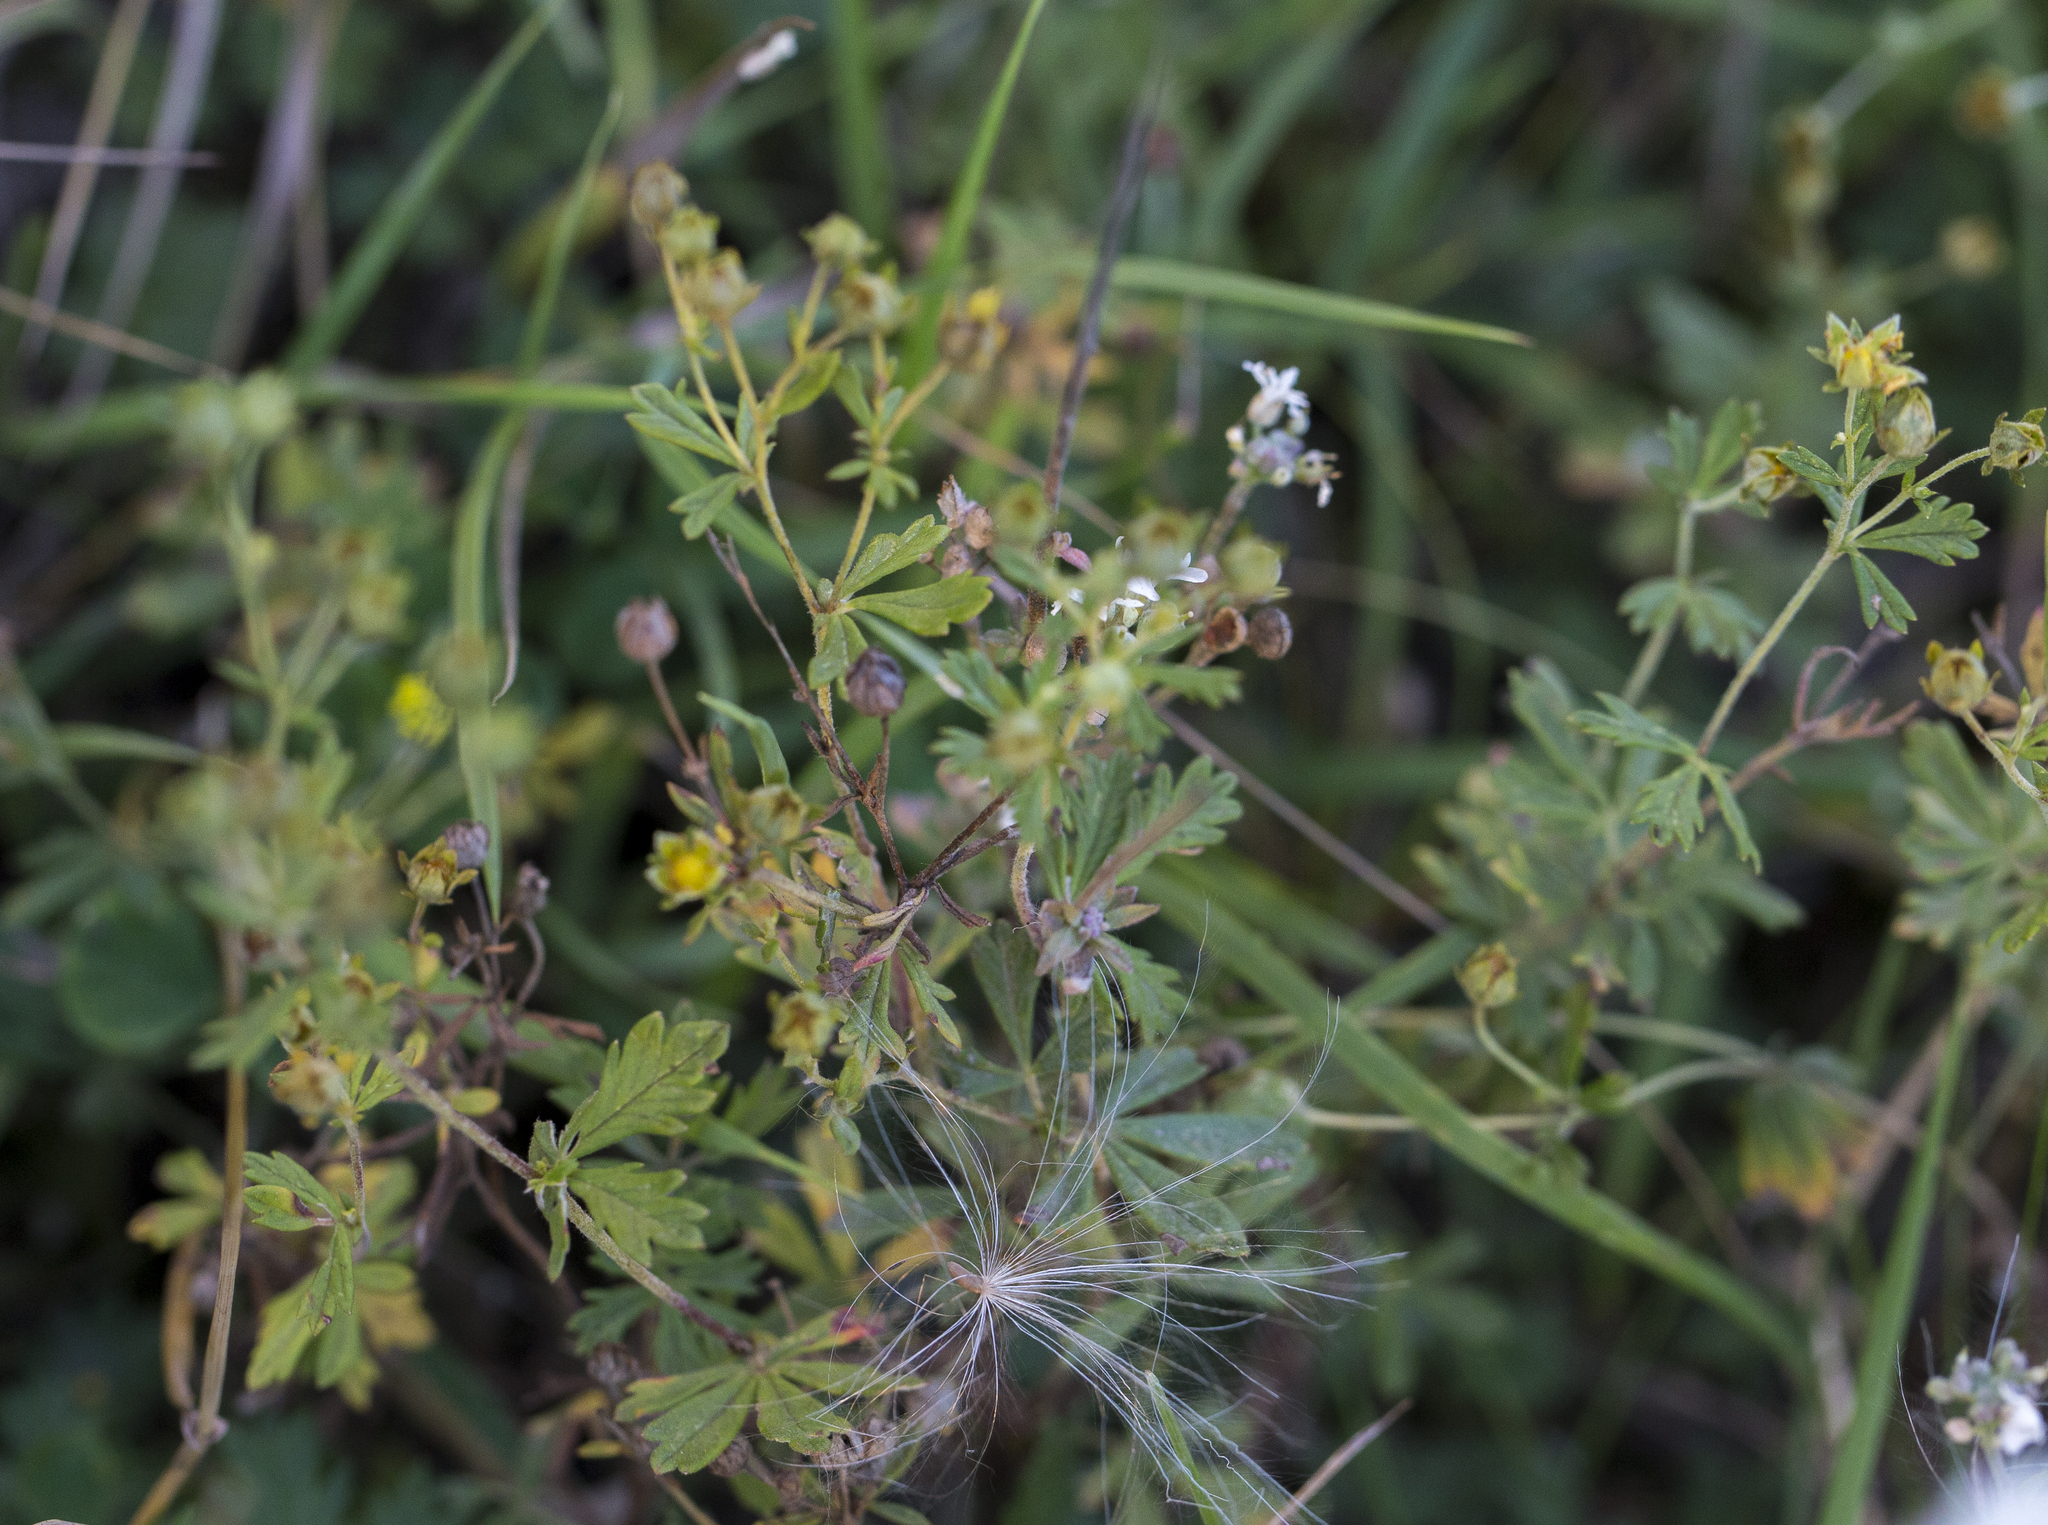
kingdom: Plantae
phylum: Tracheophyta
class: Magnoliopsida
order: Rosales
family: Rosaceae
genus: Potentilla
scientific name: Potentilla supina
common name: Prostrate cinquefoil
